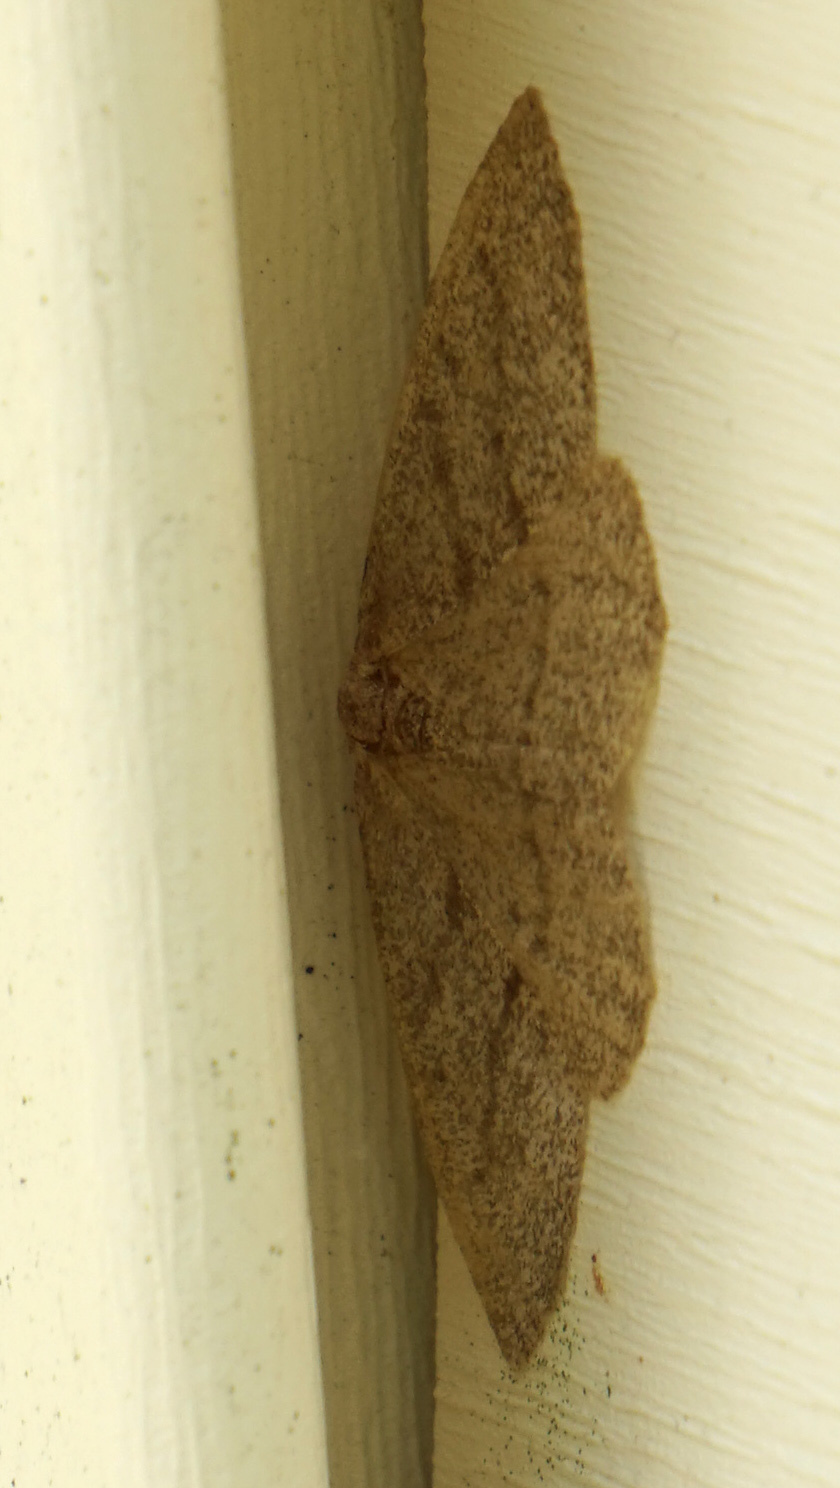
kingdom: Animalia
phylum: Arthropoda
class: Insecta
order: Lepidoptera
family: Geometridae
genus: Lambdina
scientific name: Lambdina fervidaria
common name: Curve-lined looper moth
